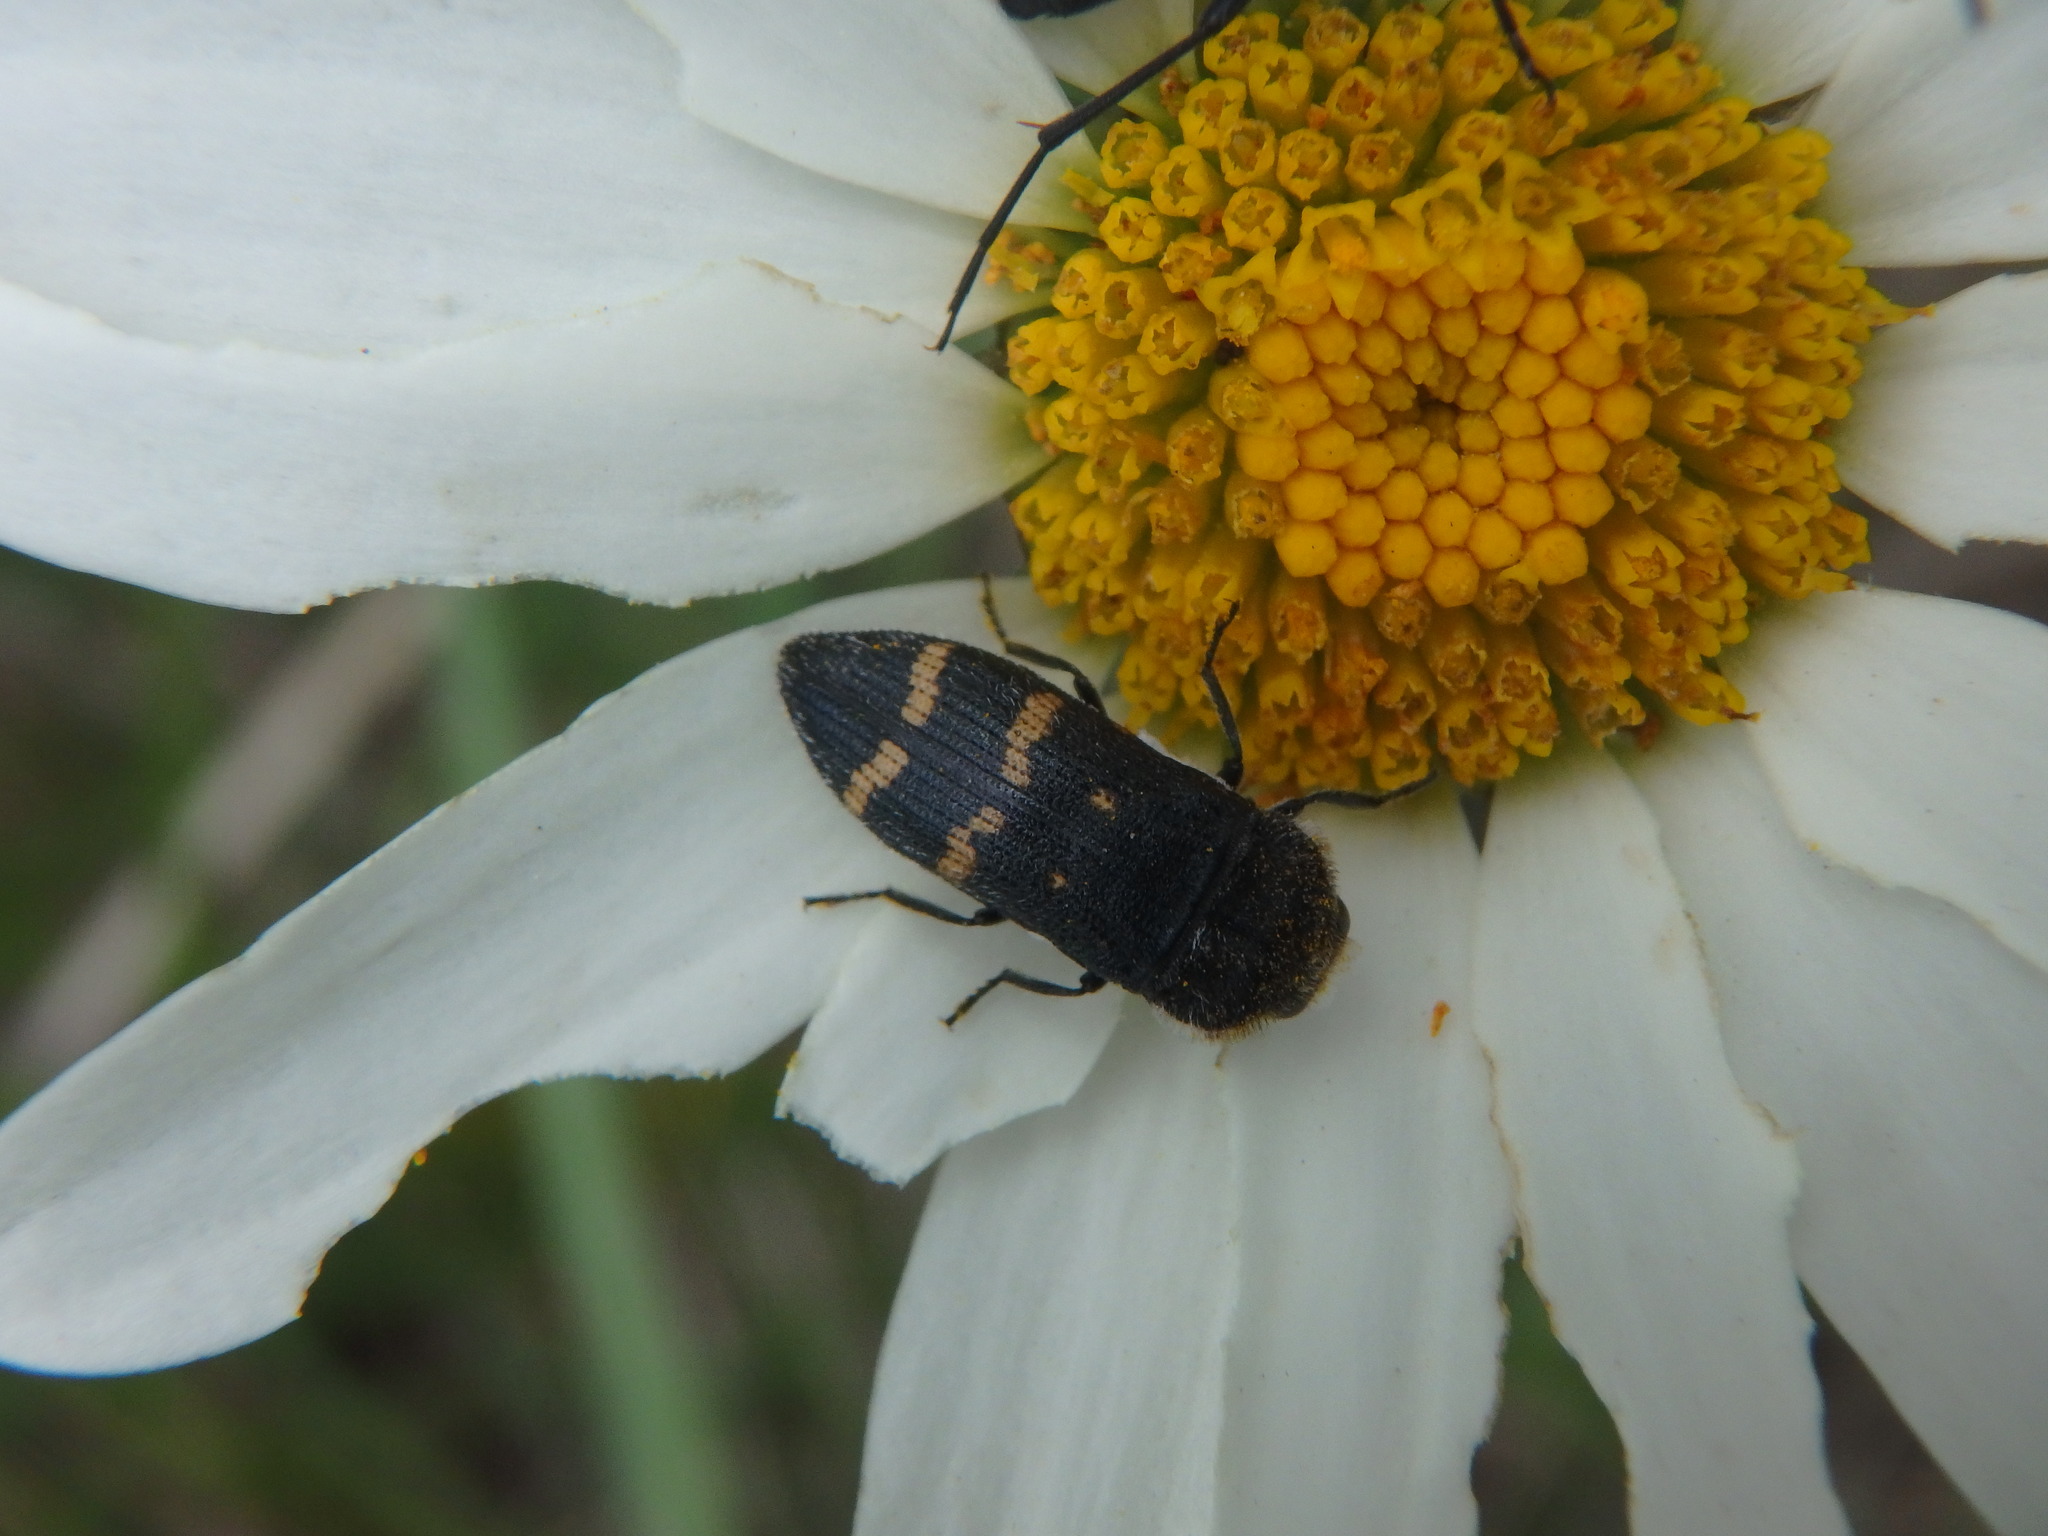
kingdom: Animalia
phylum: Arthropoda
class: Insecta
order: Coleoptera
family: Buprestidae
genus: Acmaeoderella
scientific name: Acmaeoderella flavofasciata
